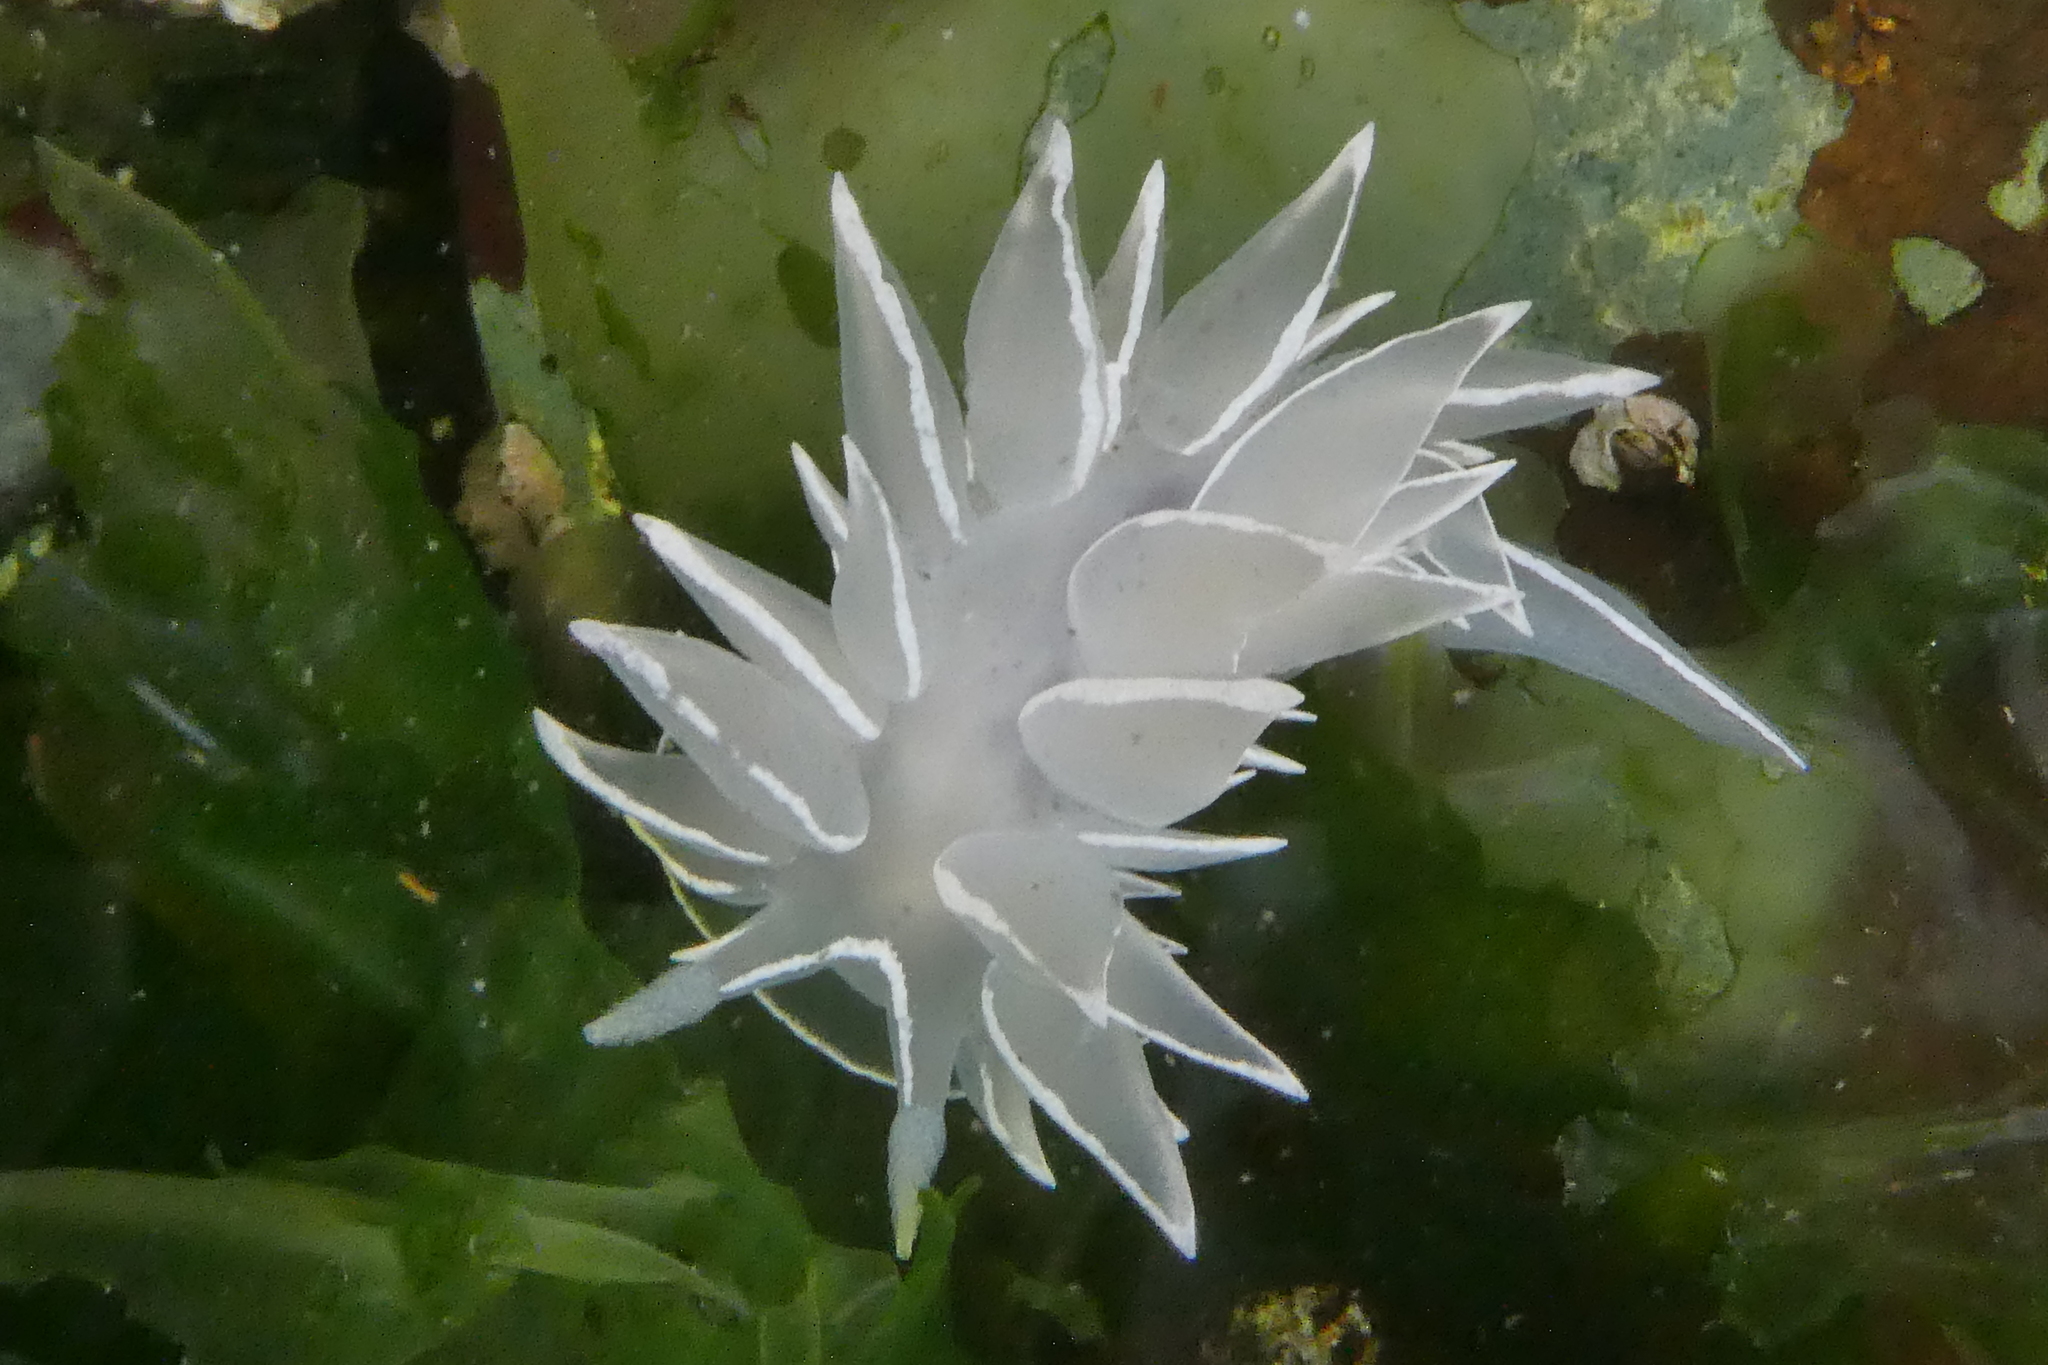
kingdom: Animalia
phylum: Mollusca
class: Gastropoda
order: Nudibranchia
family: Dironidae
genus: Dirona
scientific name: Dirona albolineata
